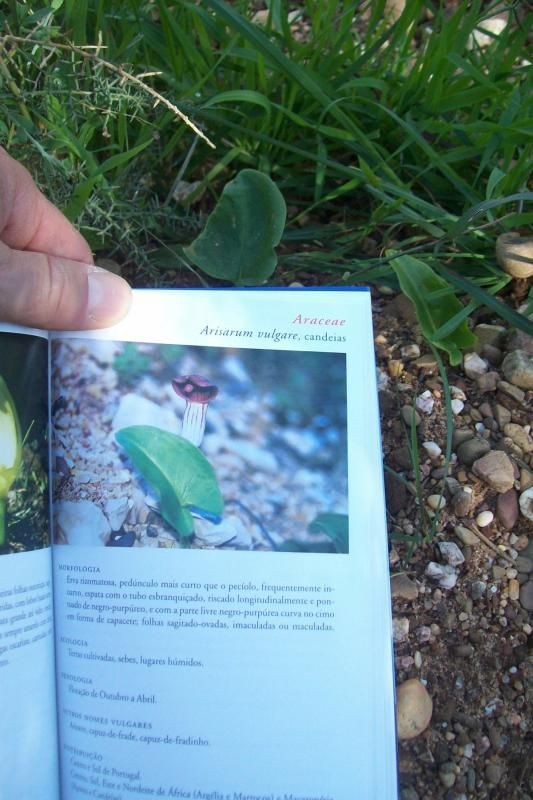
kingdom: Plantae
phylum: Tracheophyta
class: Liliopsida
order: Alismatales
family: Araceae
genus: Arisarum
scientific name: Arisarum simorrhinum
